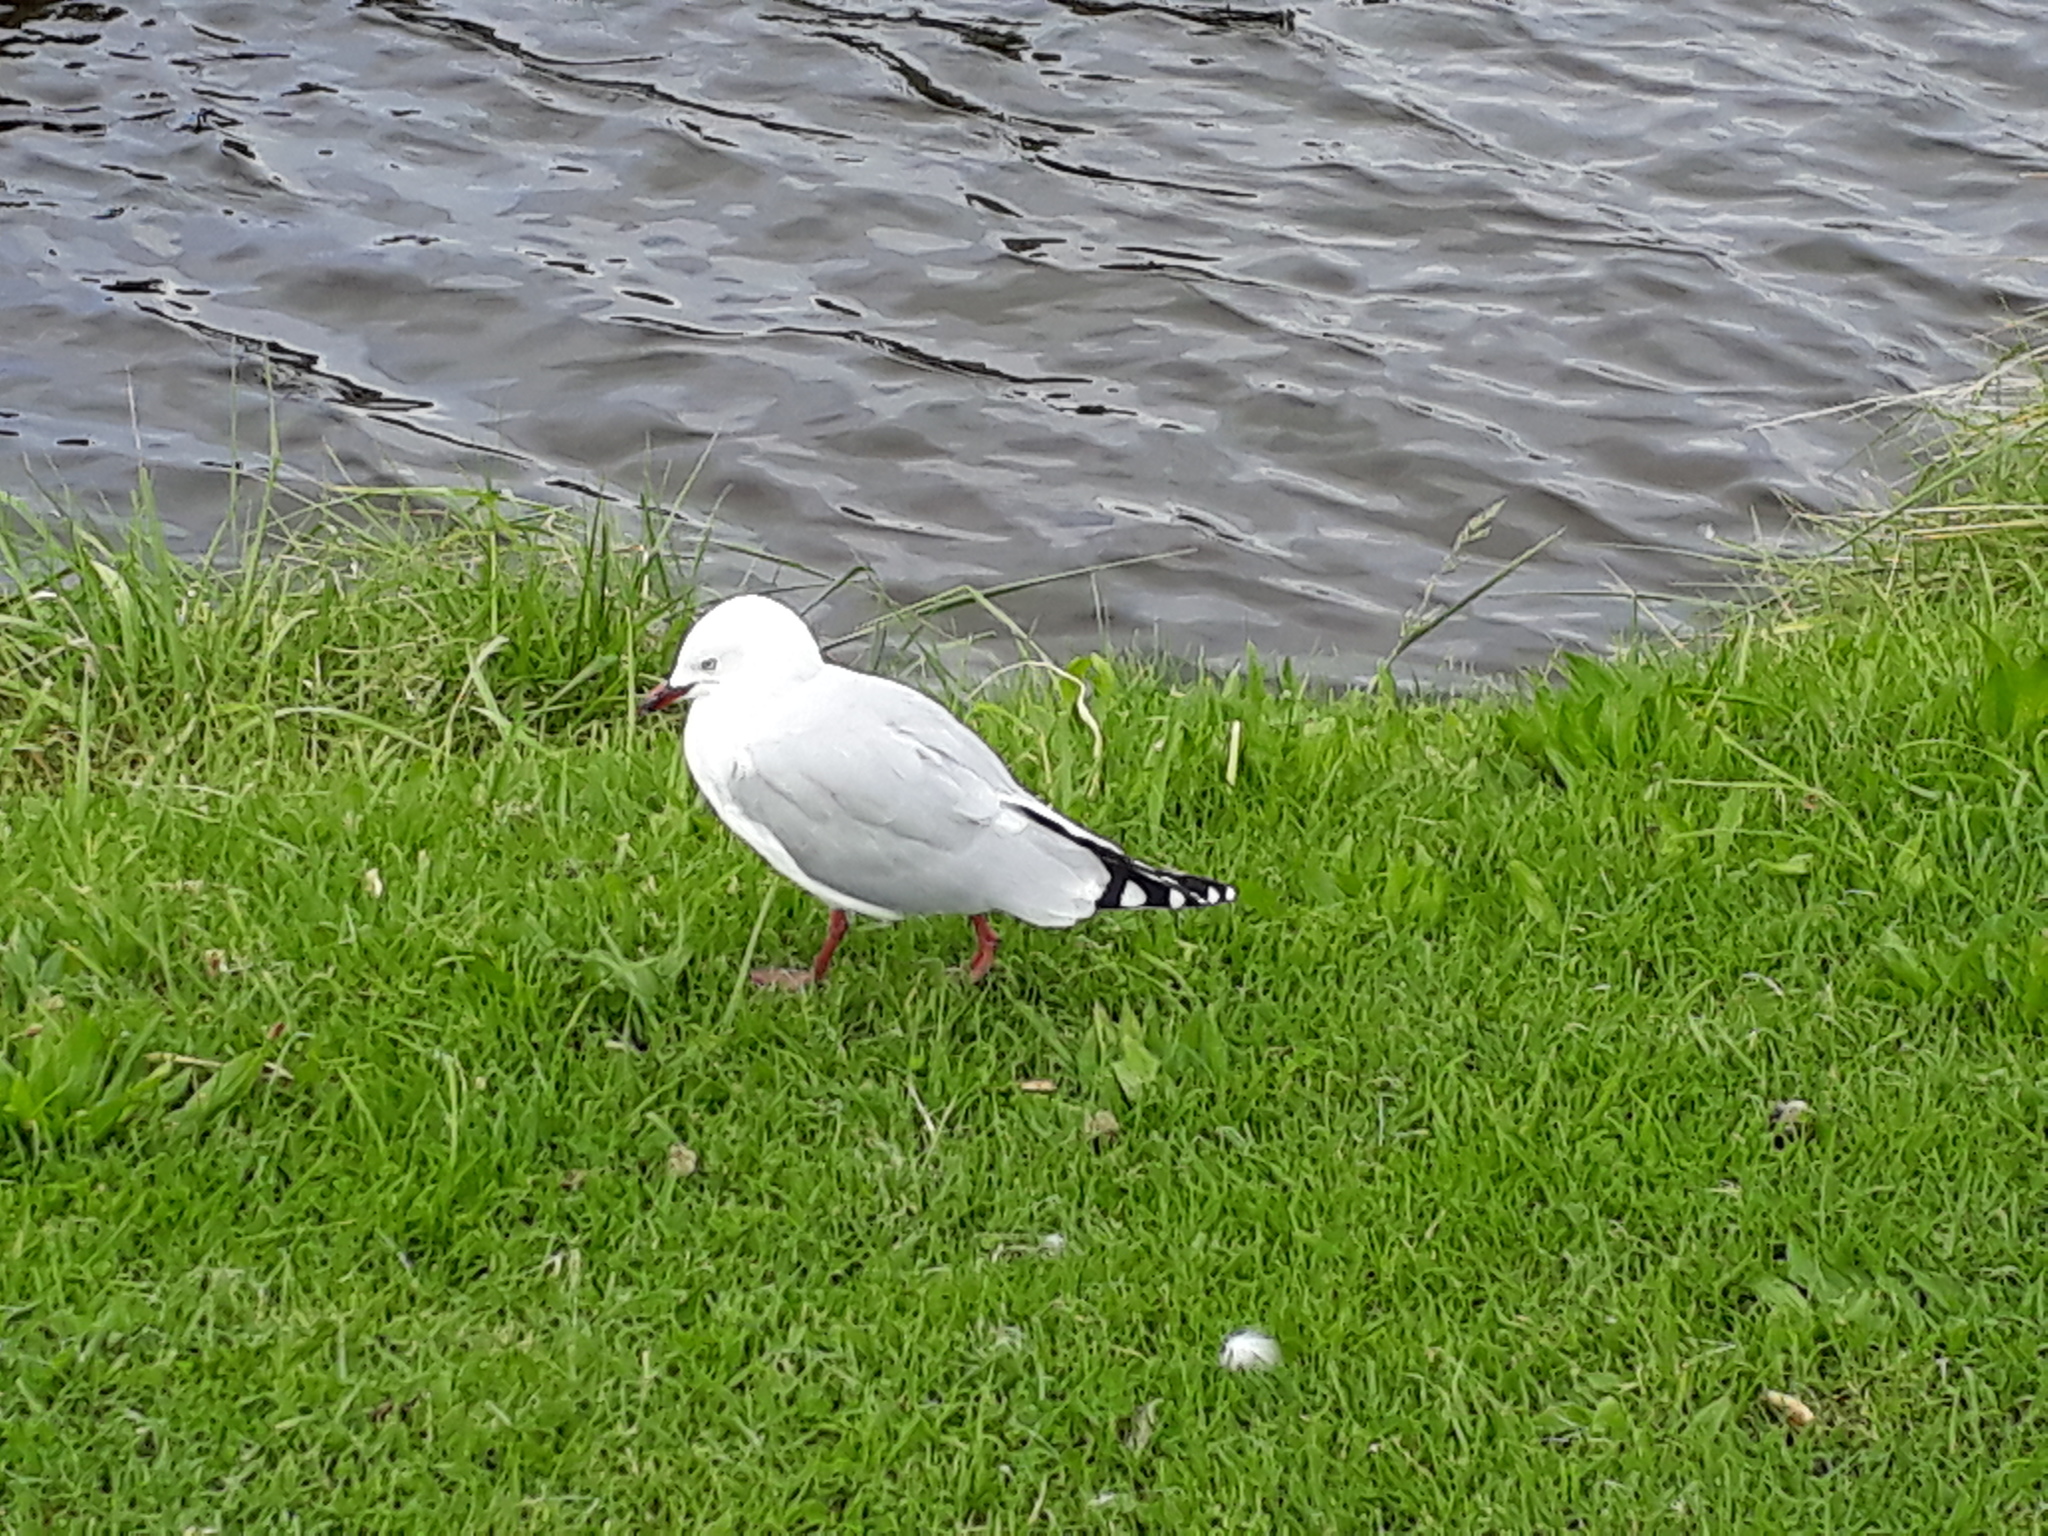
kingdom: Animalia
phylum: Chordata
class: Aves
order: Charadriiformes
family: Laridae
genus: Chroicocephalus
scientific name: Chroicocephalus novaehollandiae
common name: Silver gull
